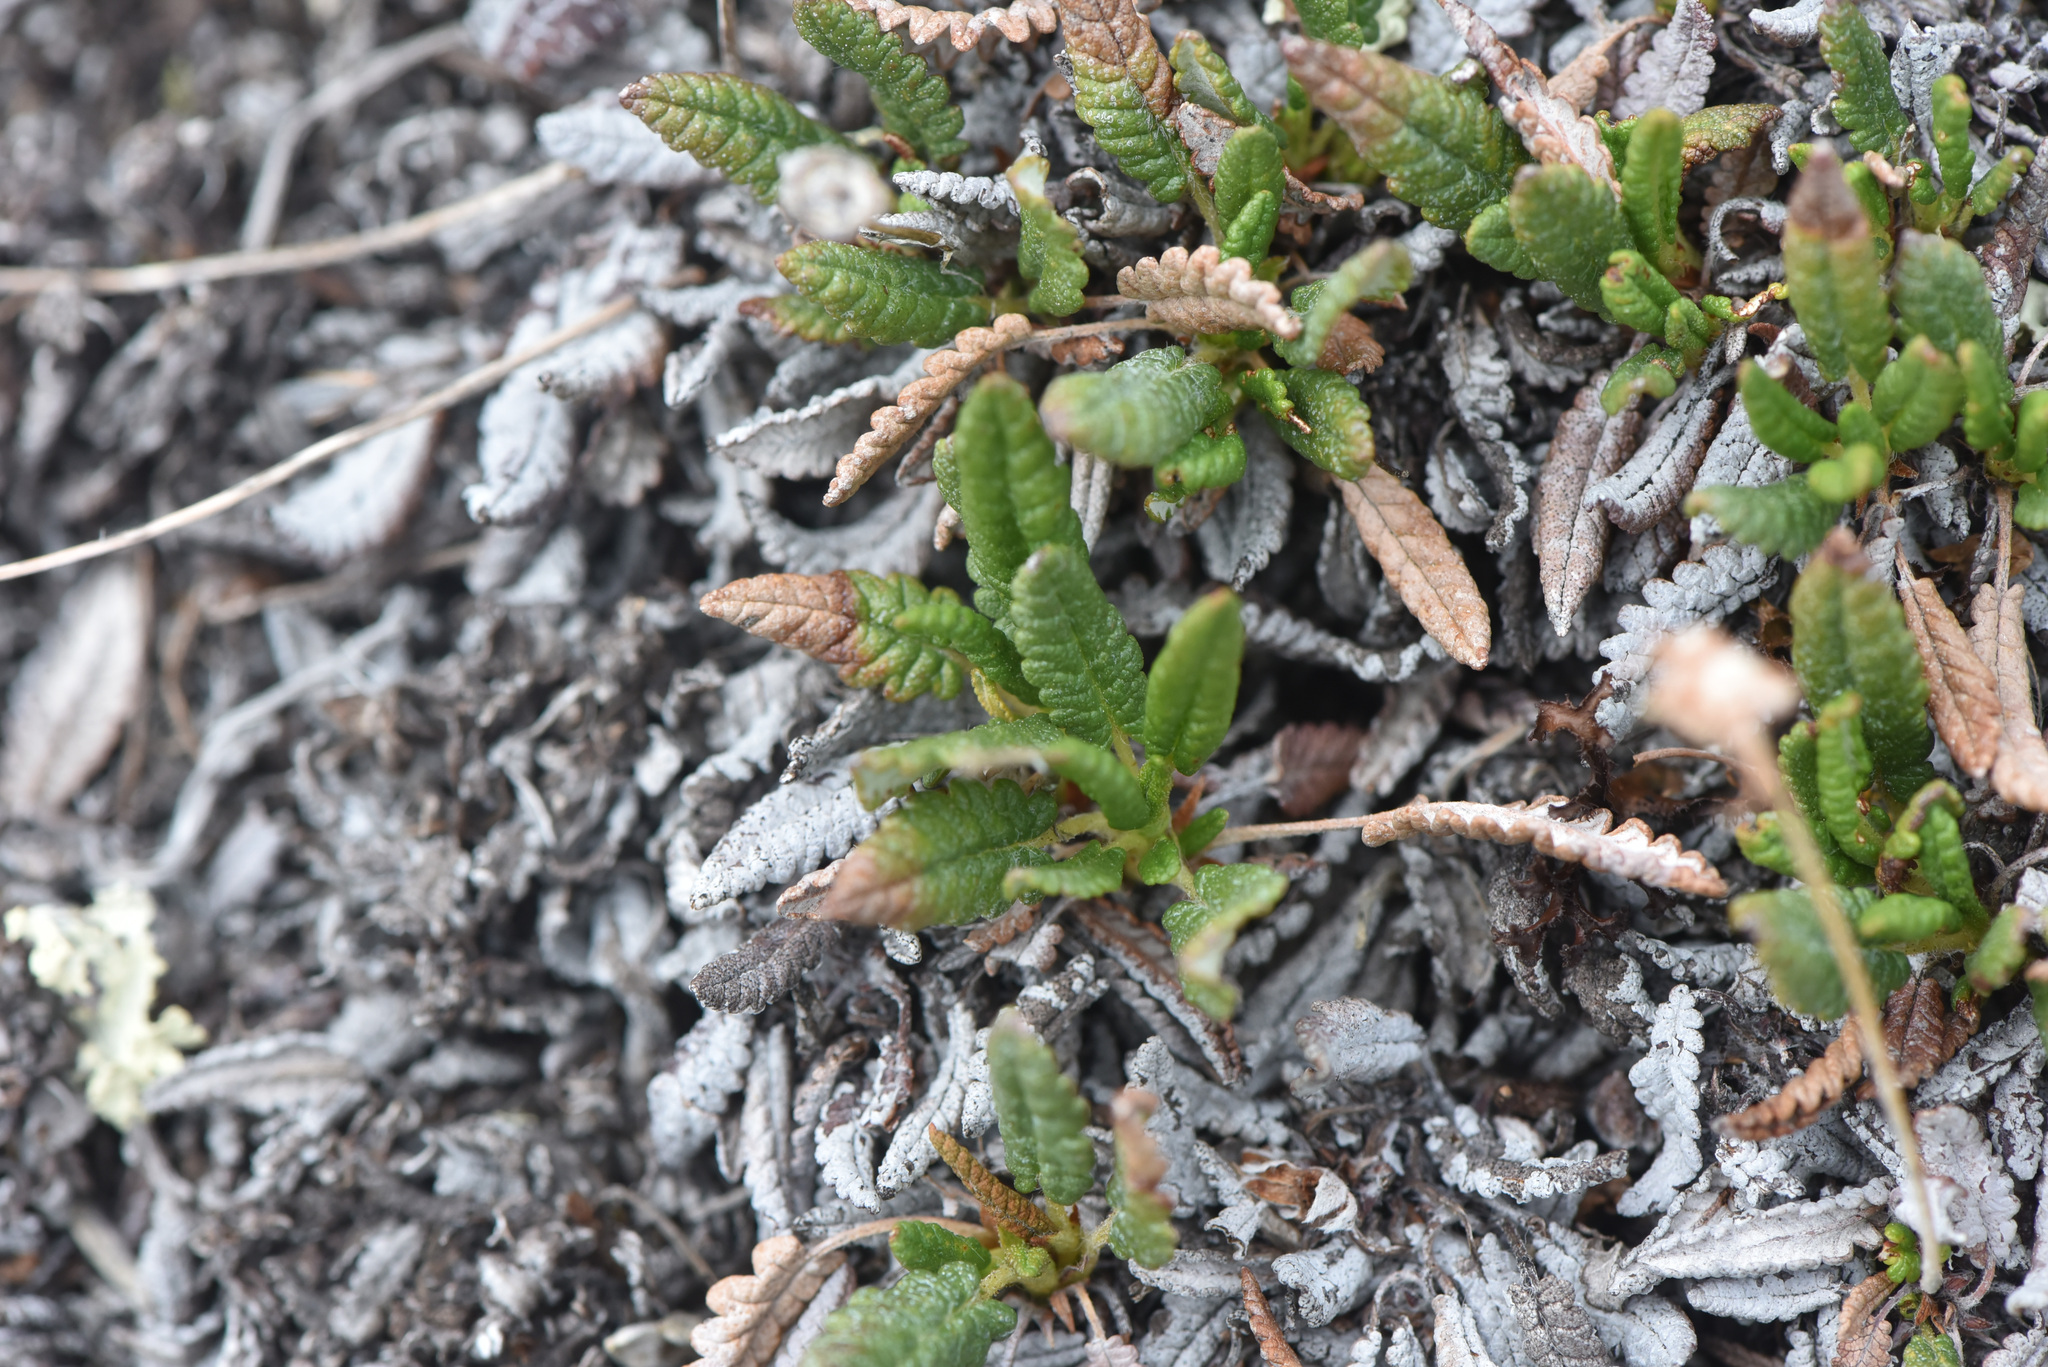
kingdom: Plantae
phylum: Tracheophyta
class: Magnoliopsida
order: Rosales
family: Rosaceae
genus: Dryas
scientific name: Dryas octopetala
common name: Eight-petal mountain-avens
